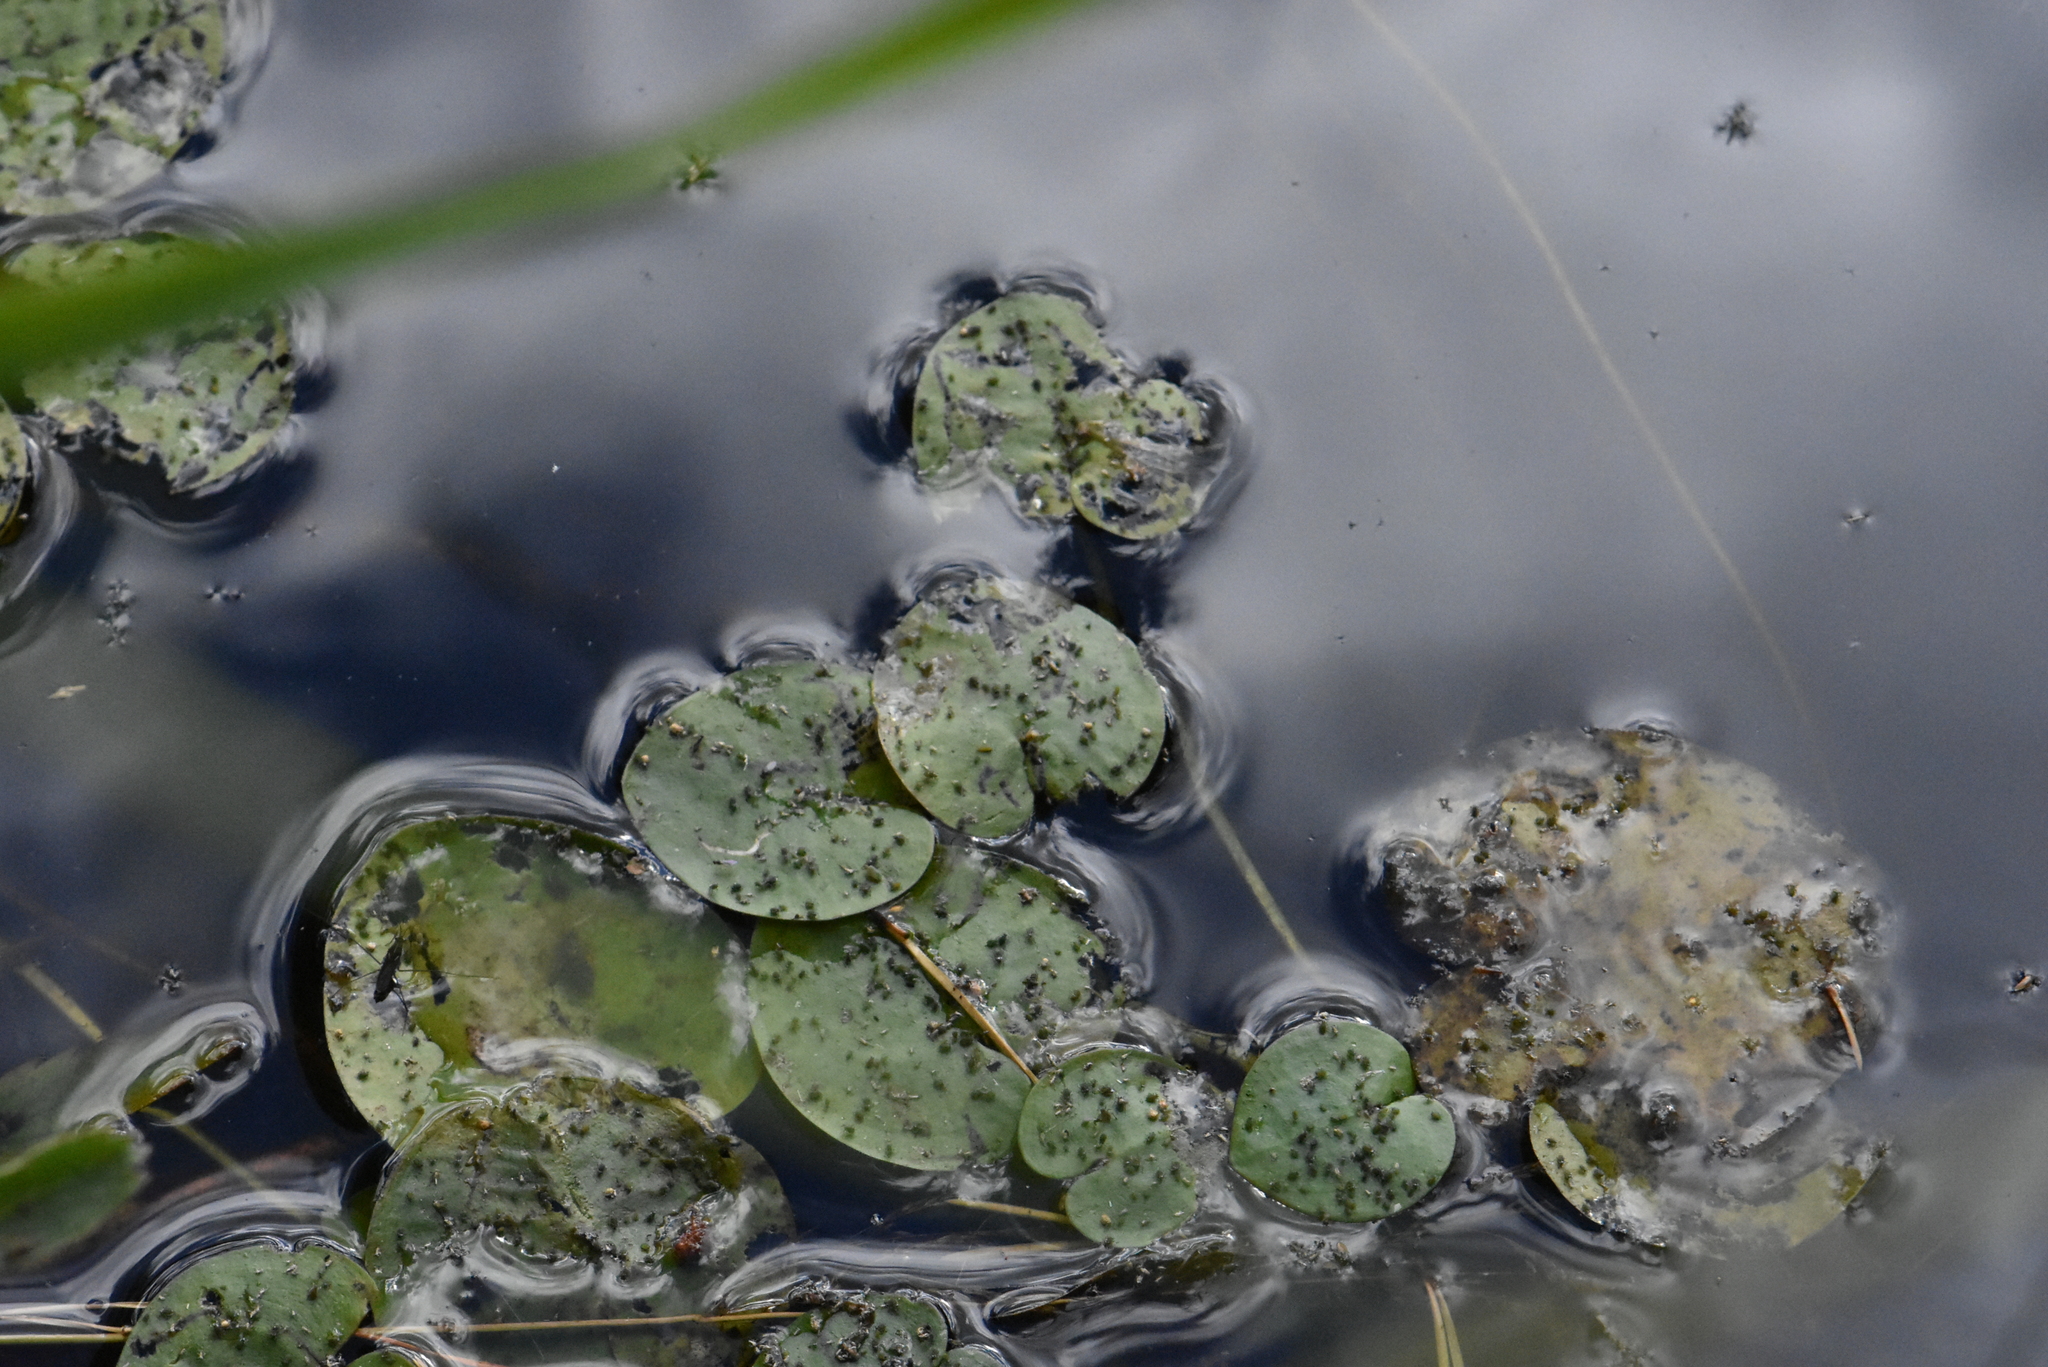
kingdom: Plantae
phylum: Tracheophyta
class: Liliopsida
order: Alismatales
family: Hydrocharitaceae
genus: Hydrocharis
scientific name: Hydrocharis morsus-ranae
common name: Frogbit
